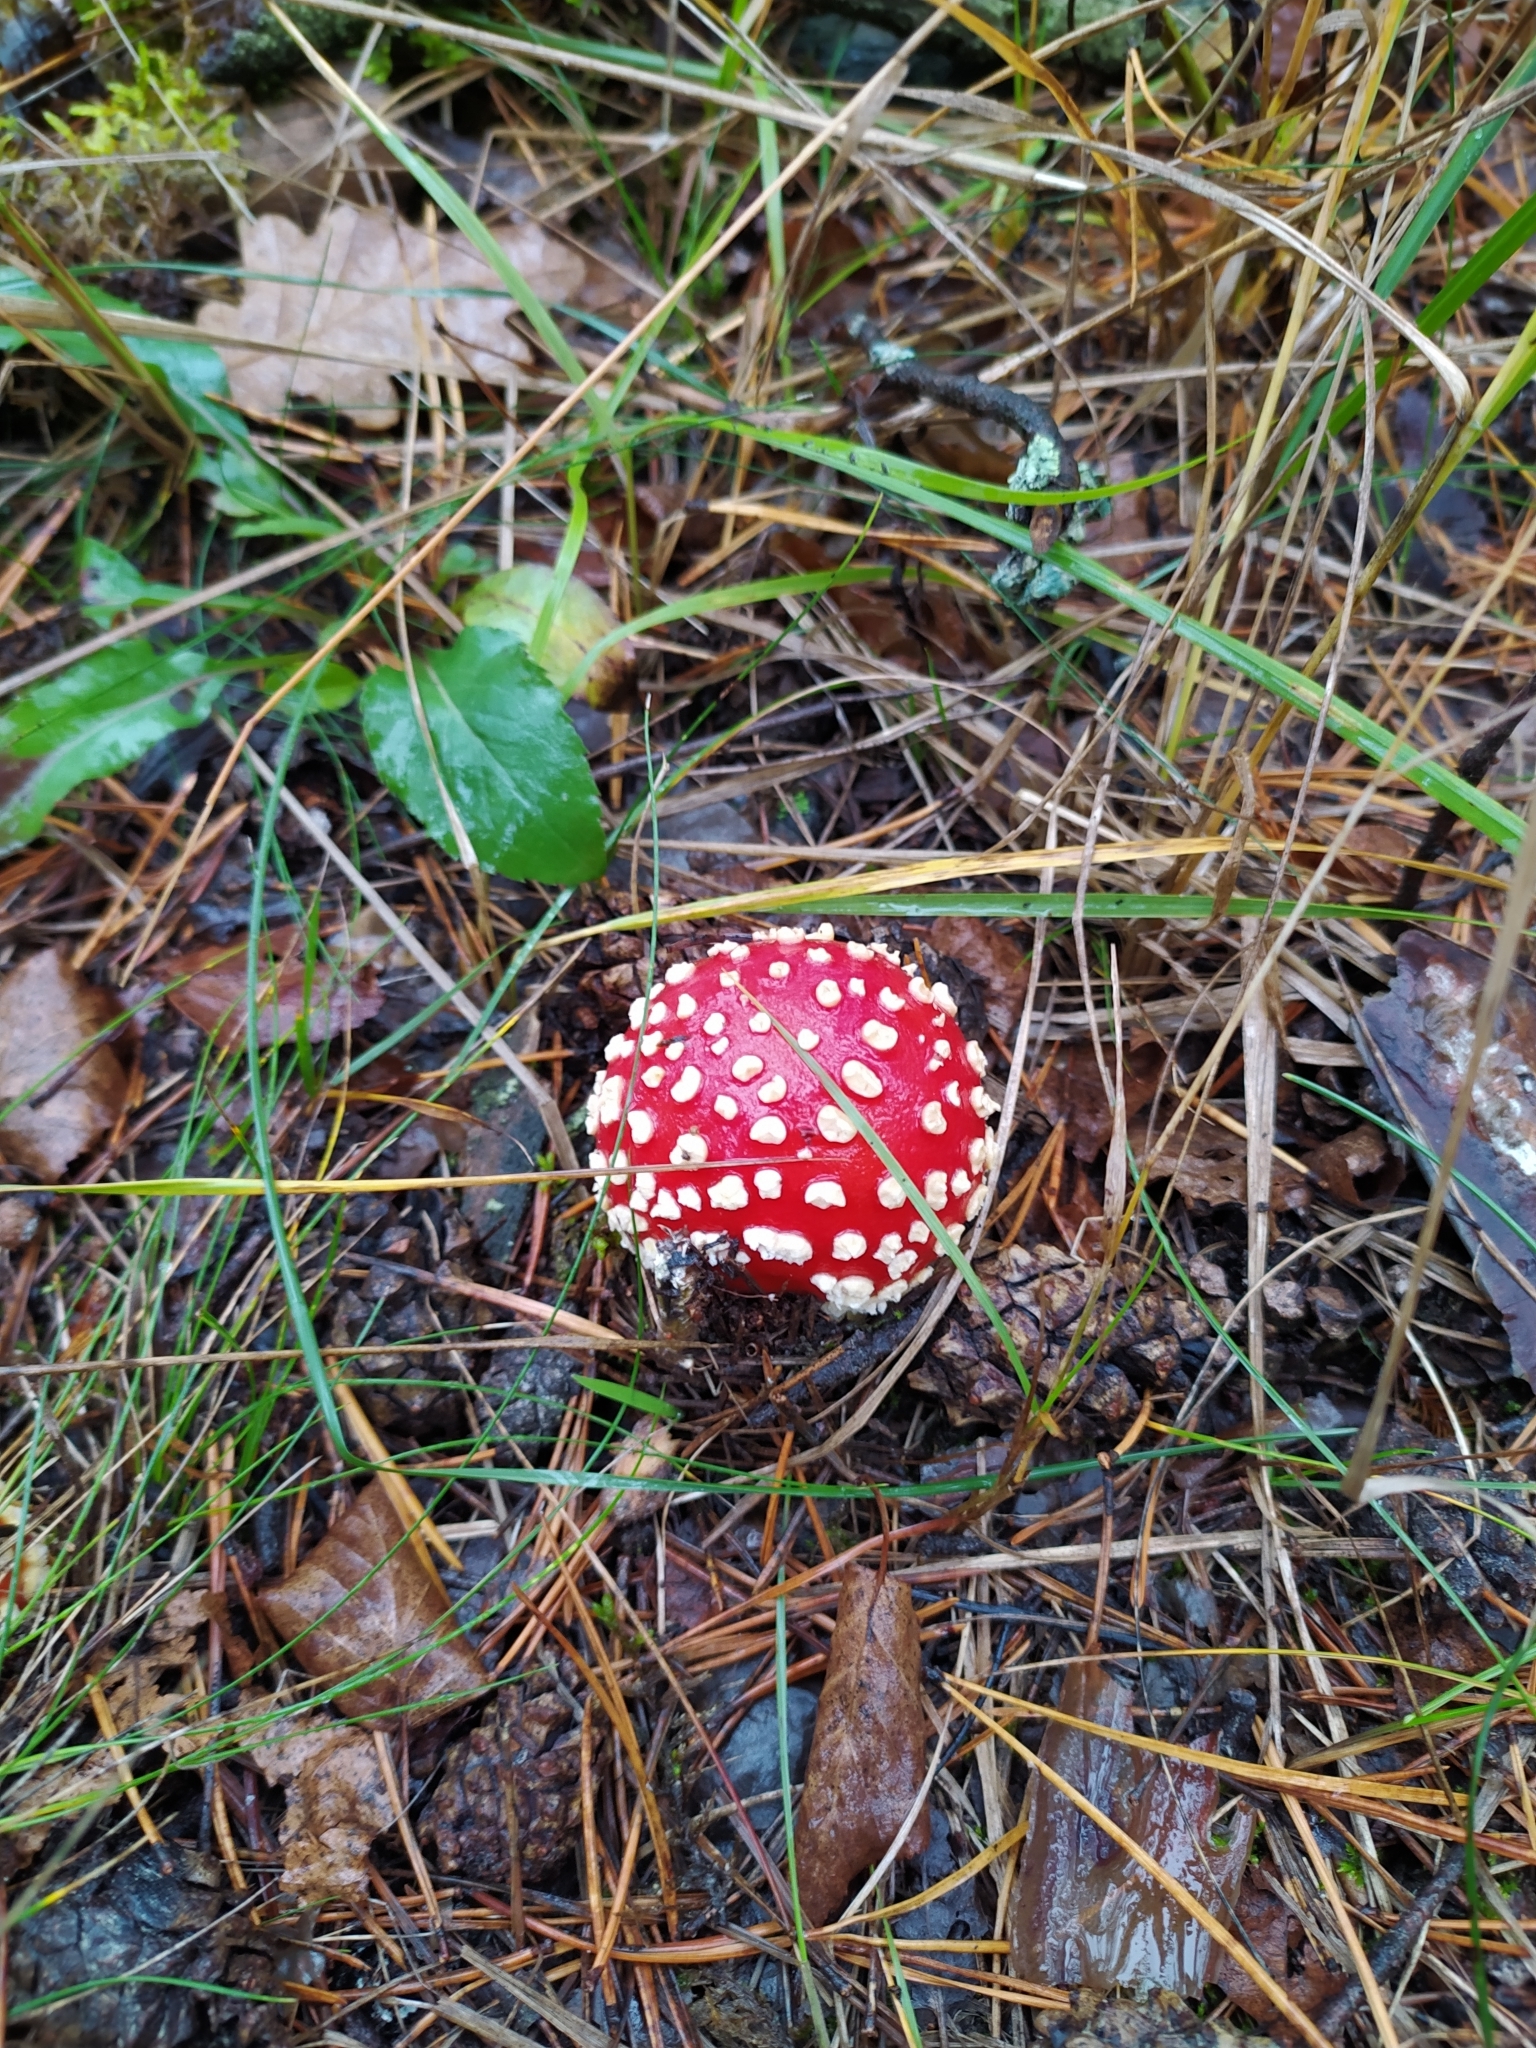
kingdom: Fungi
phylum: Basidiomycota
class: Agaricomycetes
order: Agaricales
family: Amanitaceae
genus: Amanita
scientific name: Amanita muscaria
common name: Fly agaric
